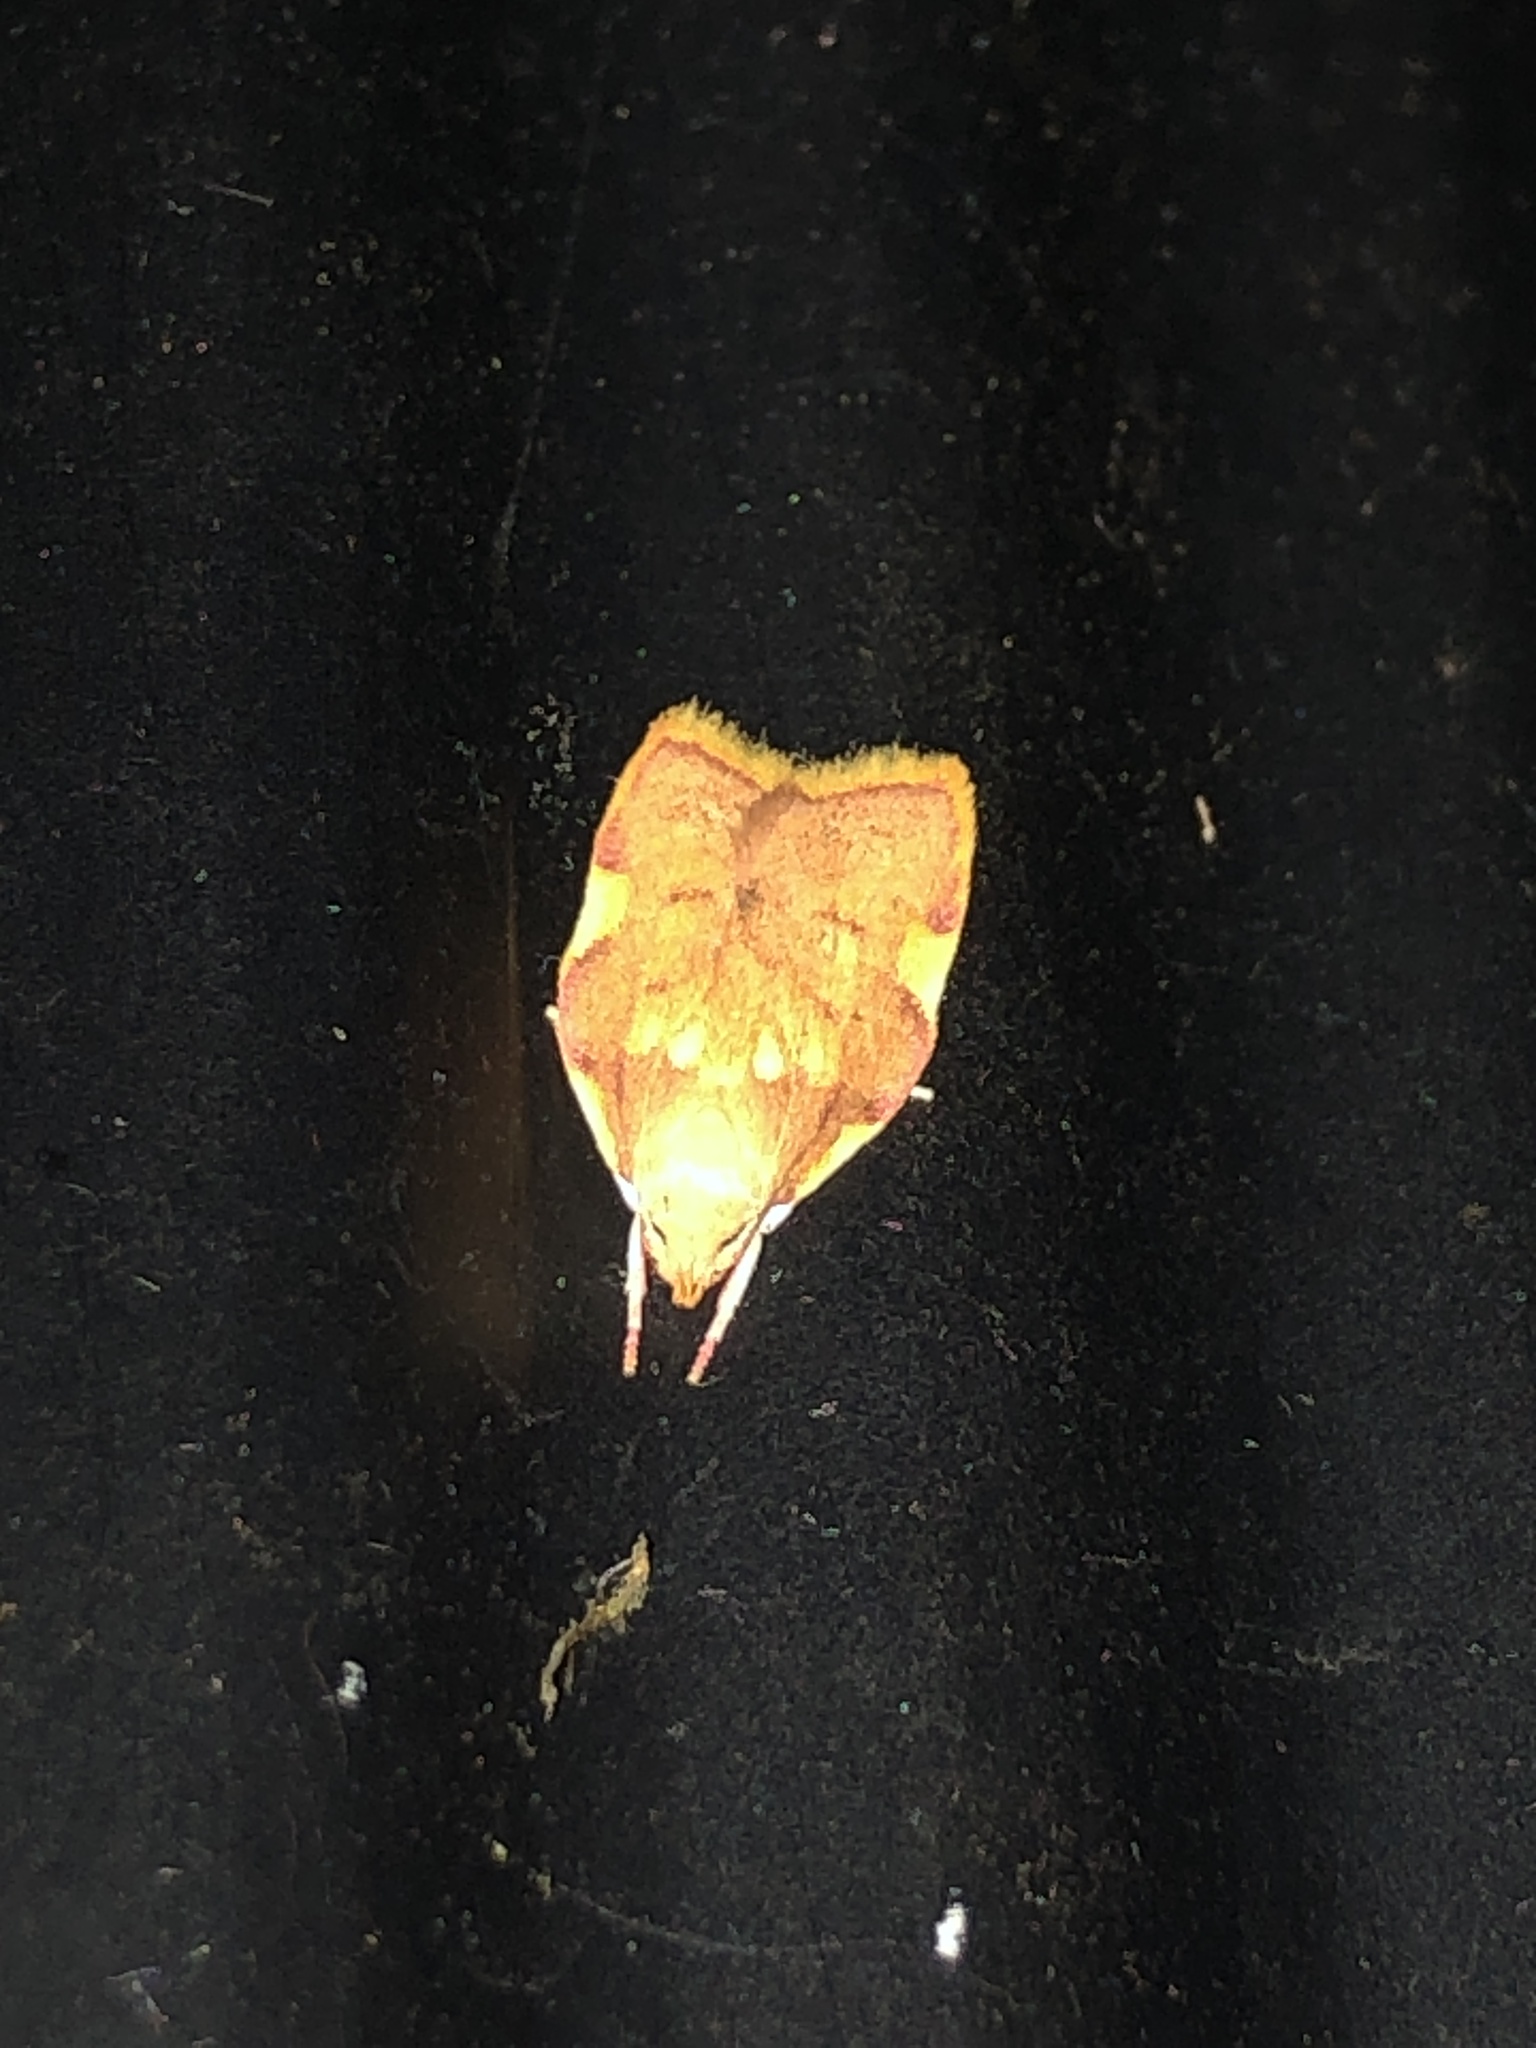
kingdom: Animalia
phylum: Arthropoda
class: Insecta
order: Lepidoptera
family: Peleopodidae
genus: Carcina
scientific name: Carcina quercana
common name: Moth
